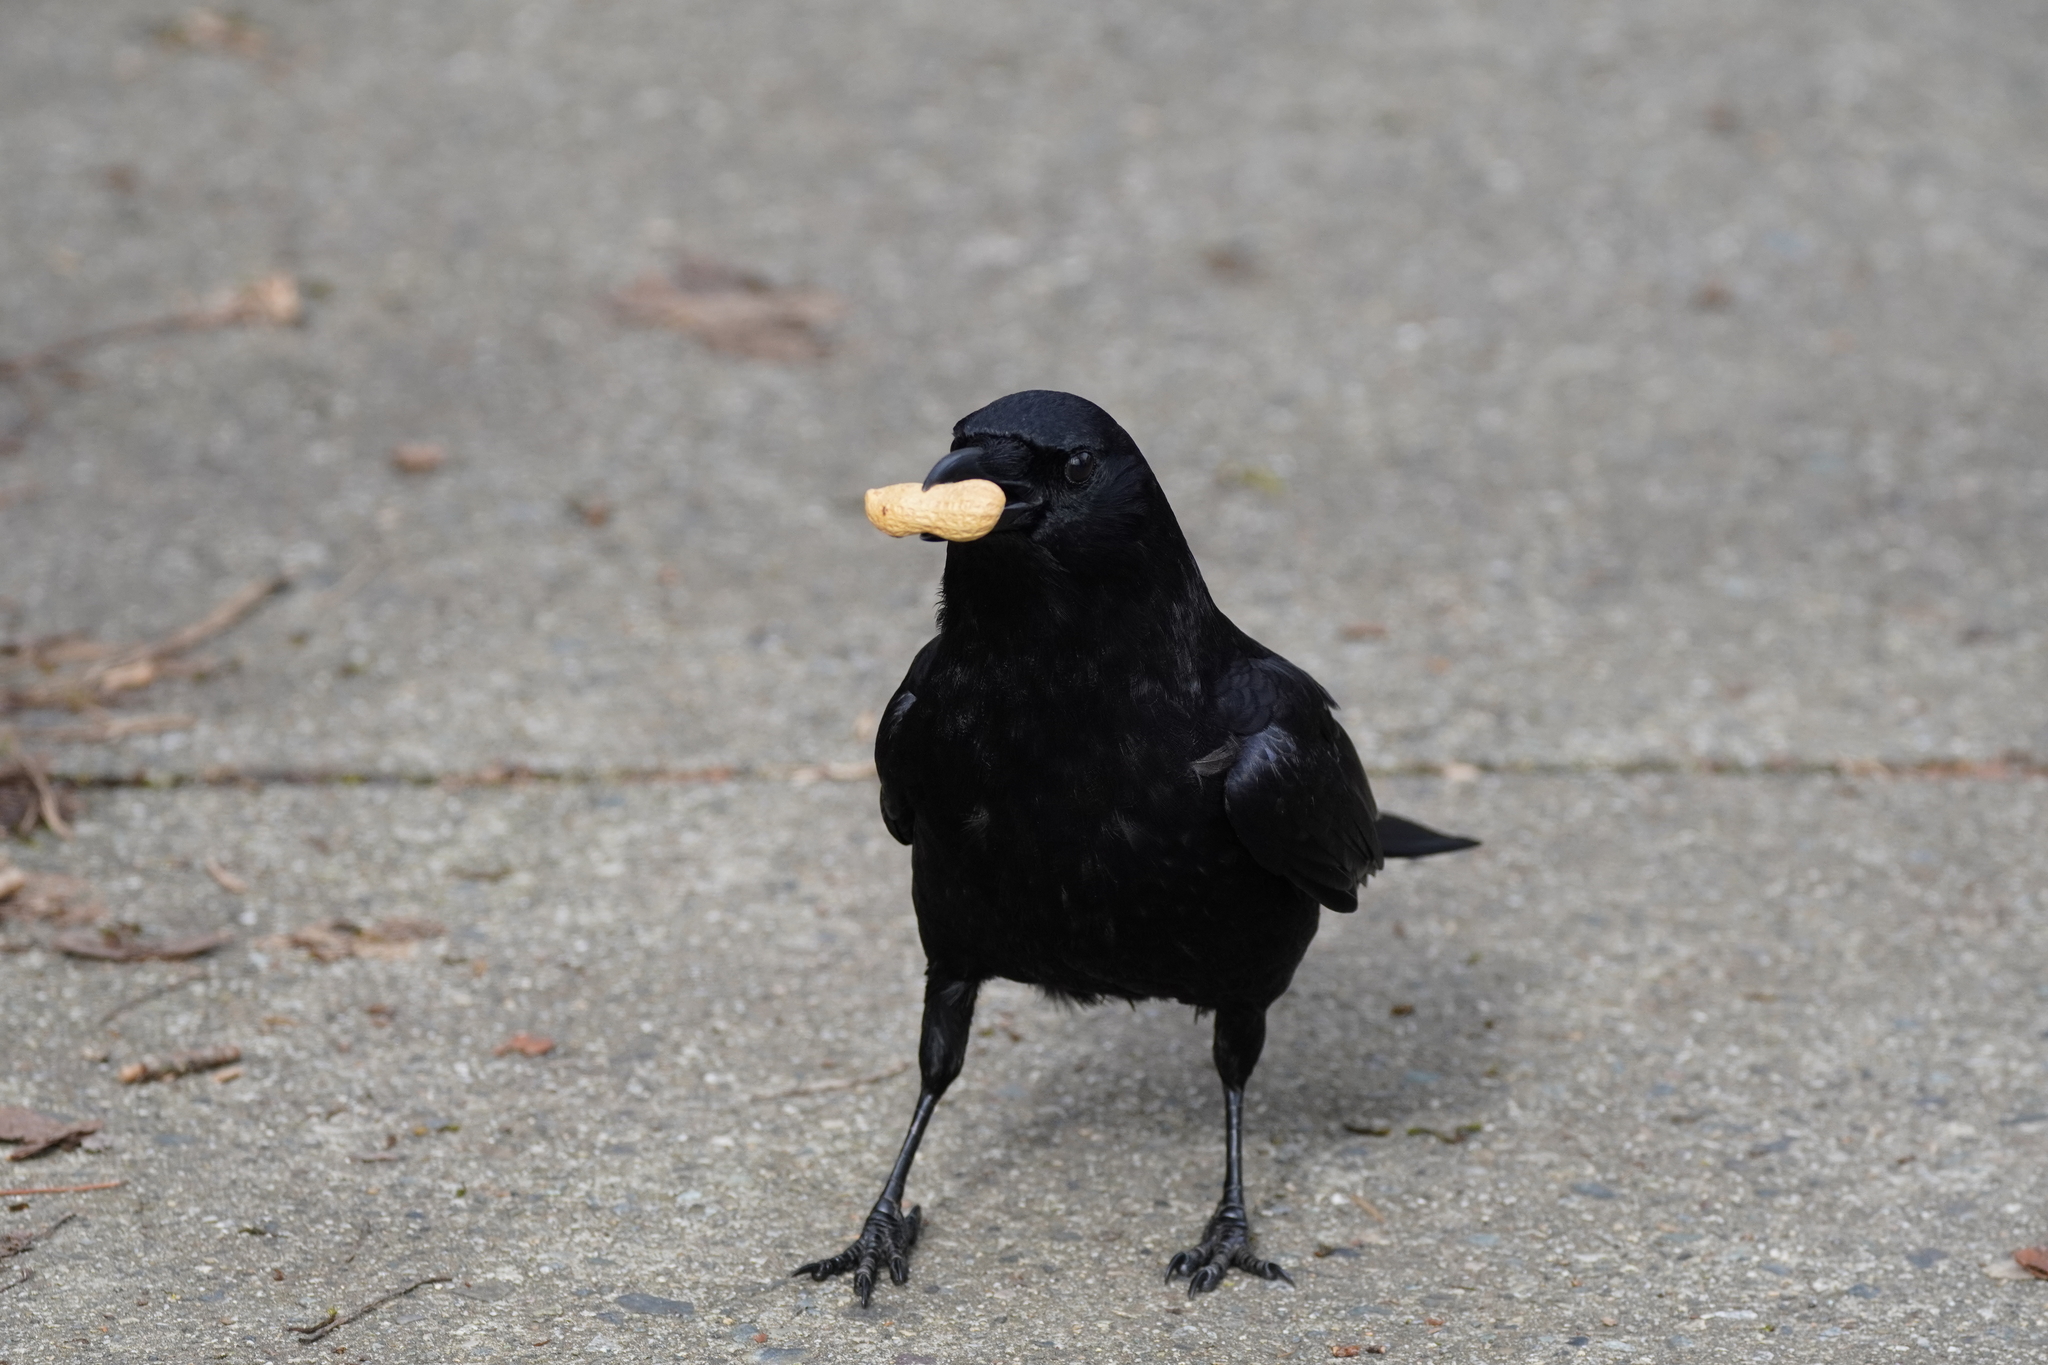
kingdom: Animalia
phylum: Chordata
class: Aves
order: Passeriformes
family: Corvidae
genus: Corvus
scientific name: Corvus brachyrhynchos
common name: American crow
